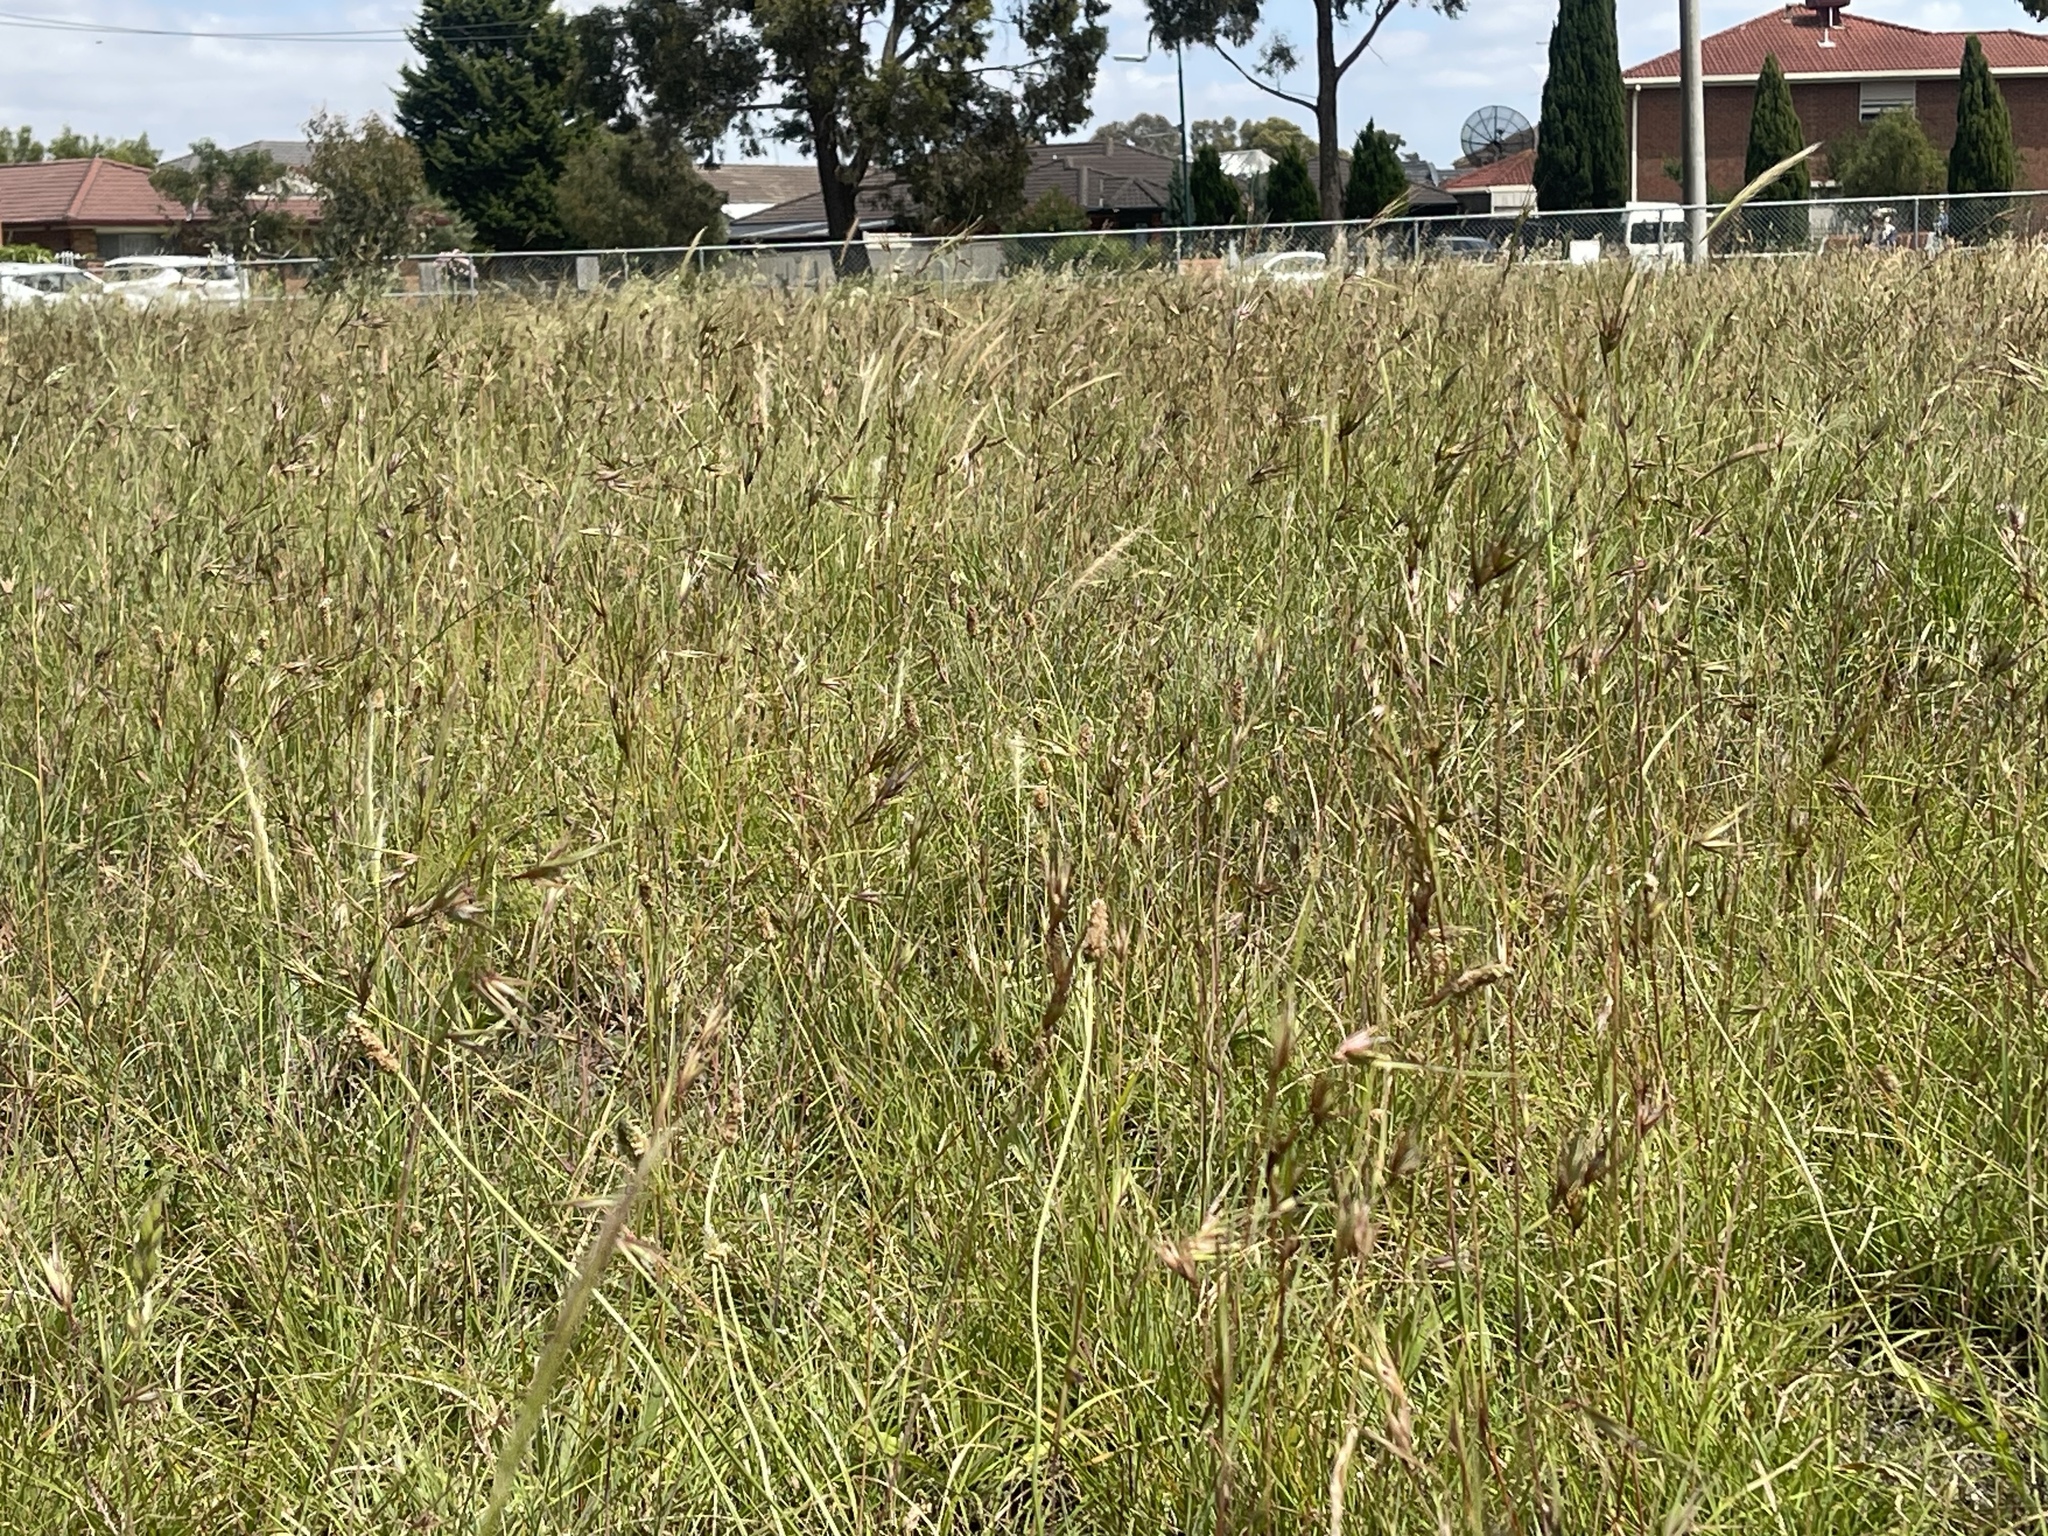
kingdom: Plantae
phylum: Tracheophyta
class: Liliopsida
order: Poales
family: Poaceae
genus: Themeda
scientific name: Themeda triandra
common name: Kangaroo grass
